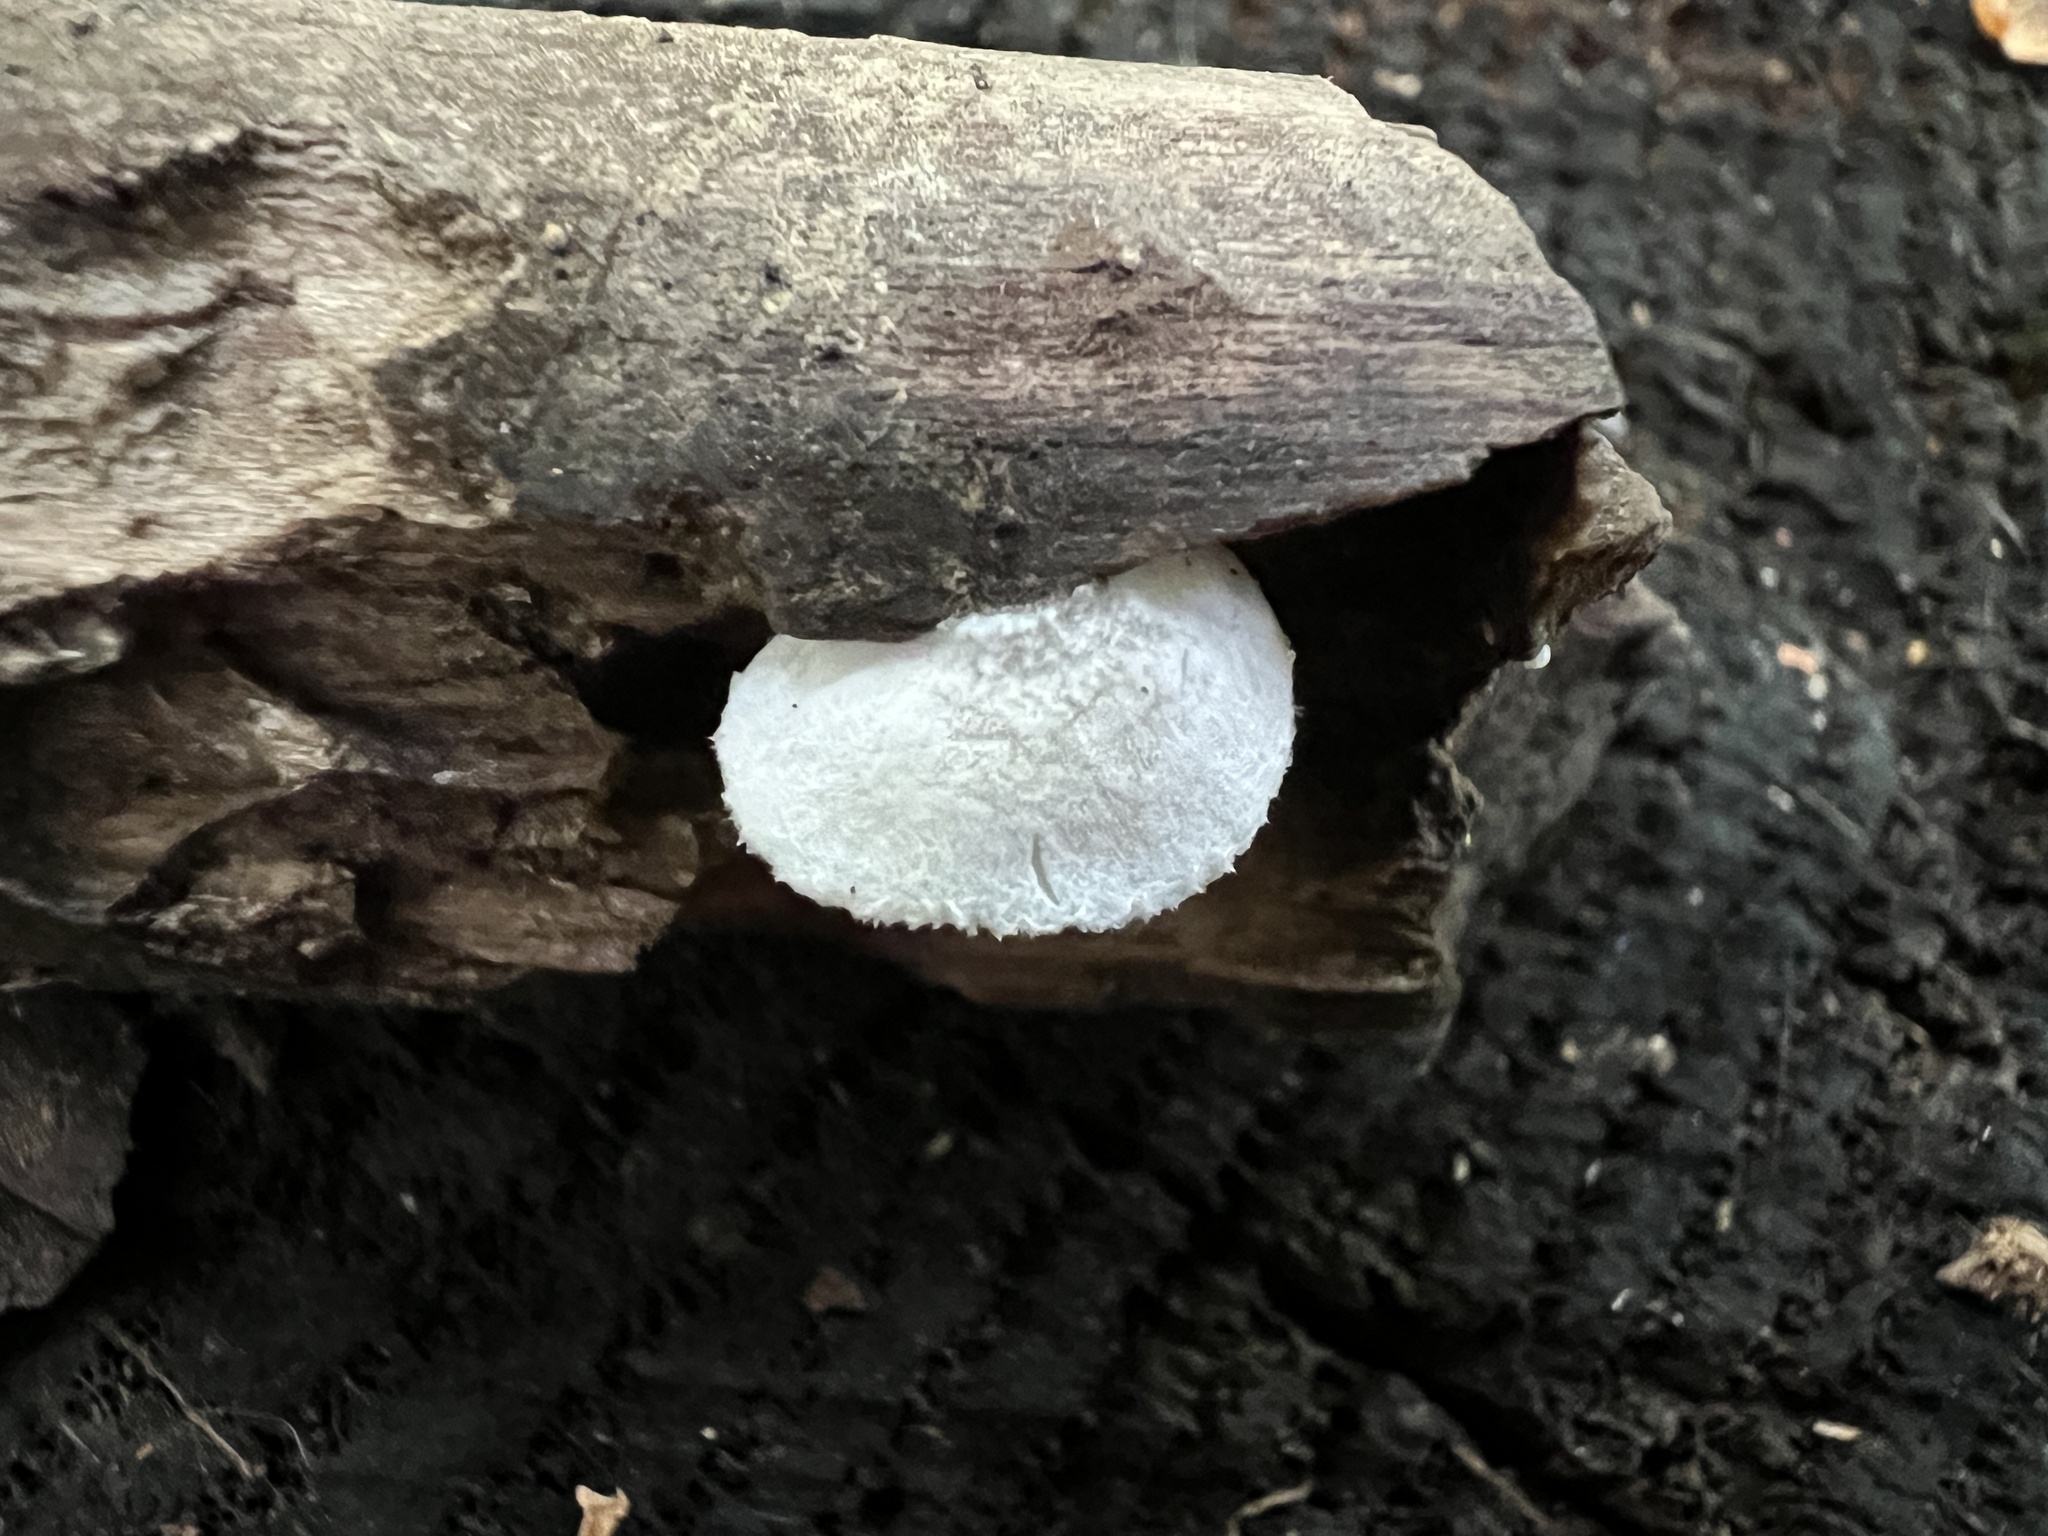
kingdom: Fungi
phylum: Basidiomycota
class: Agaricomycetes
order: Agaricales
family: Crepidotaceae
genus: Crepidotus
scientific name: Crepidotus albissimus
